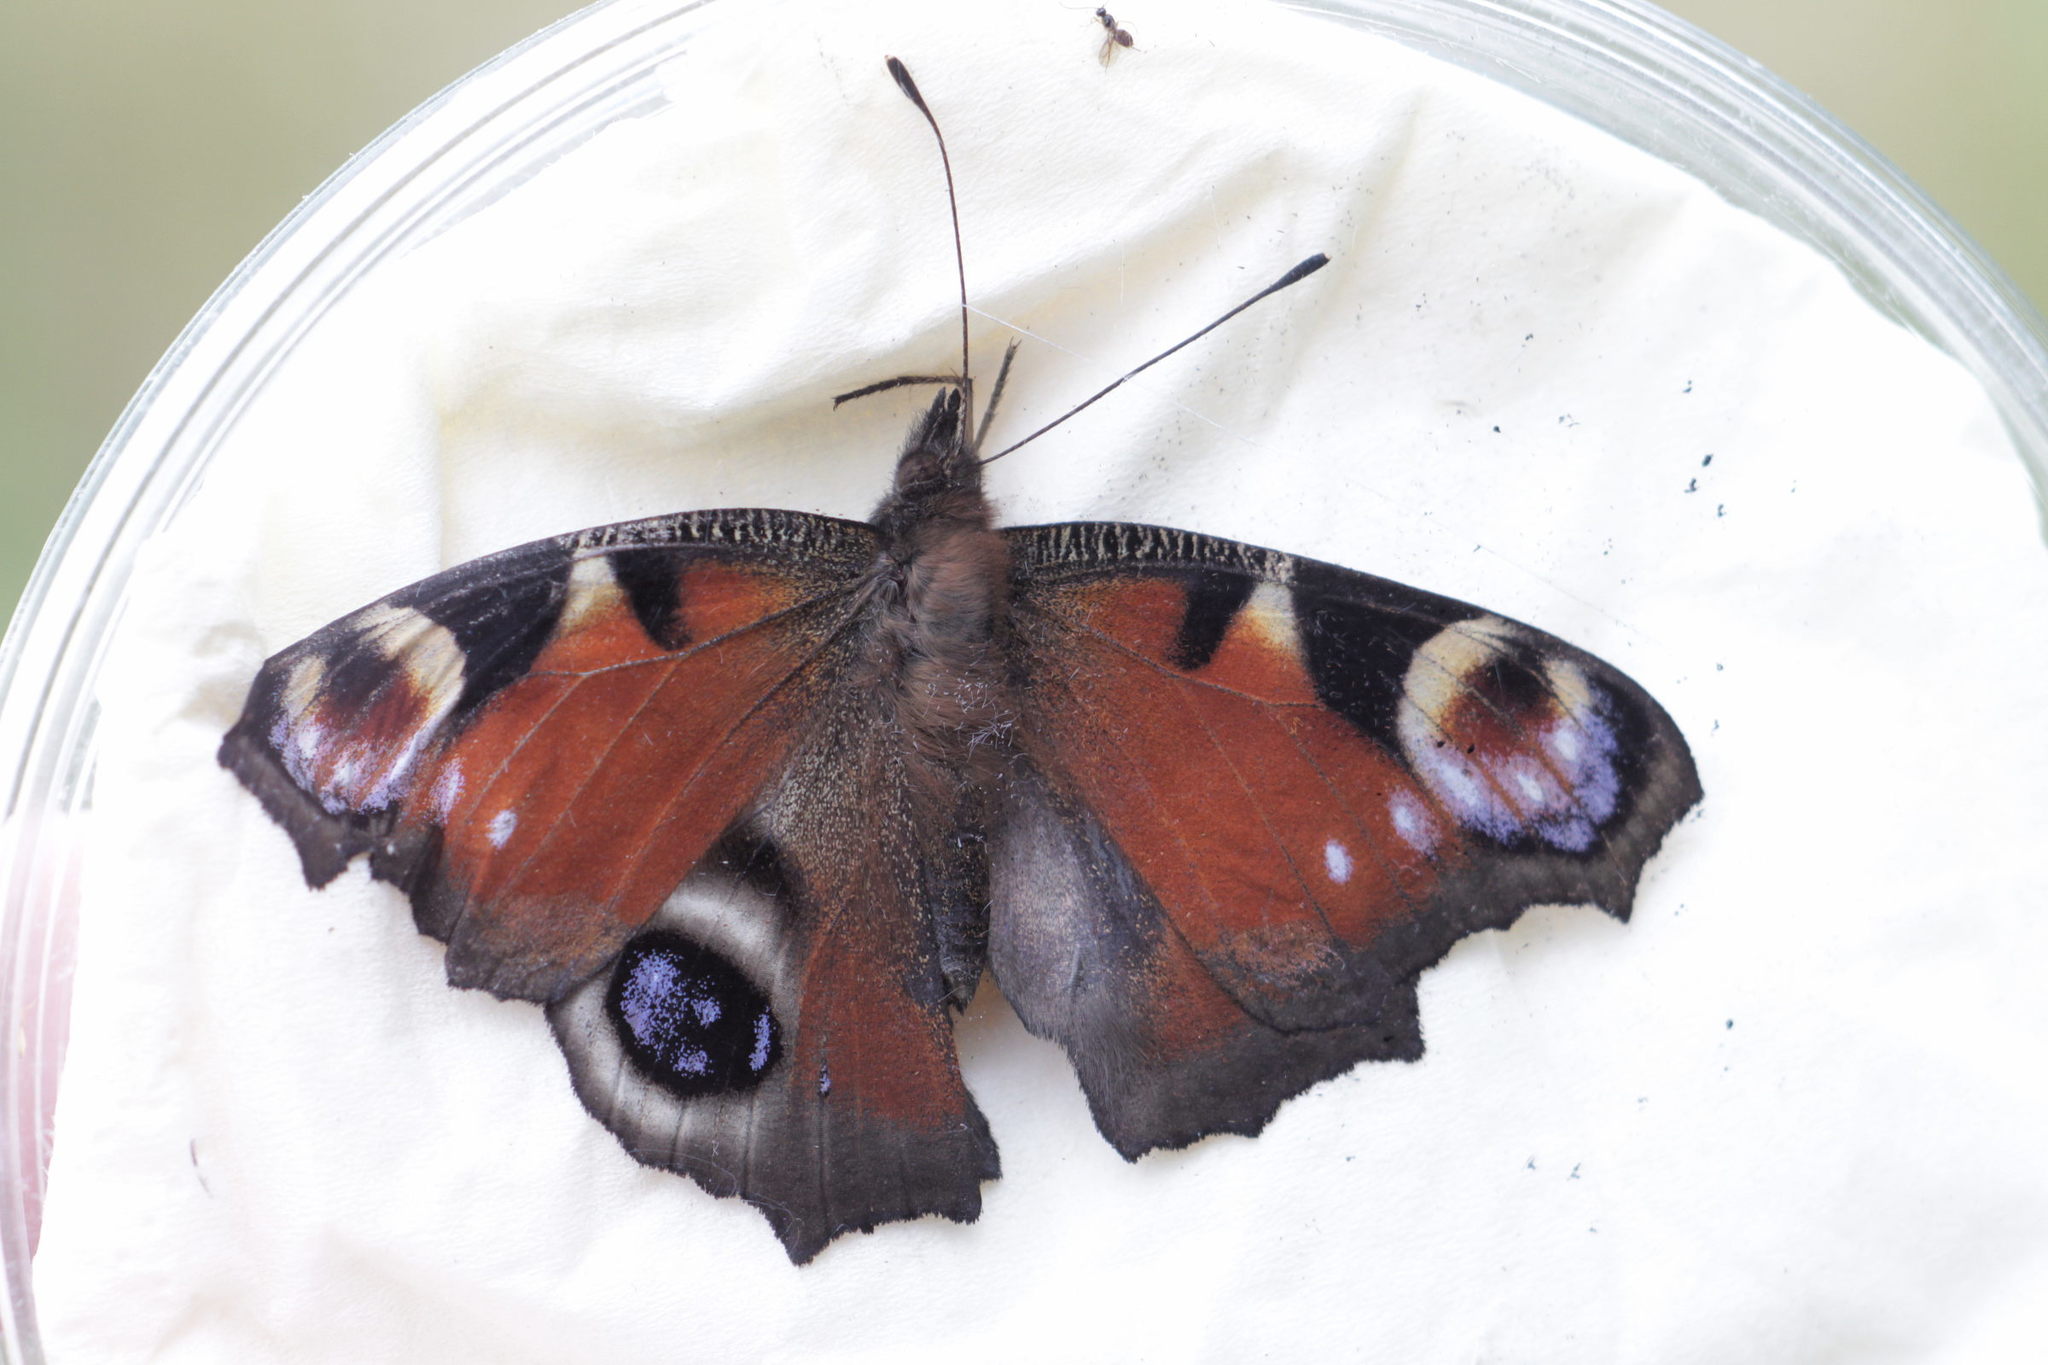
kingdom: Animalia
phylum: Arthropoda
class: Insecta
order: Lepidoptera
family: Nymphalidae
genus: Aglais
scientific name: Aglais io
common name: Peacock
